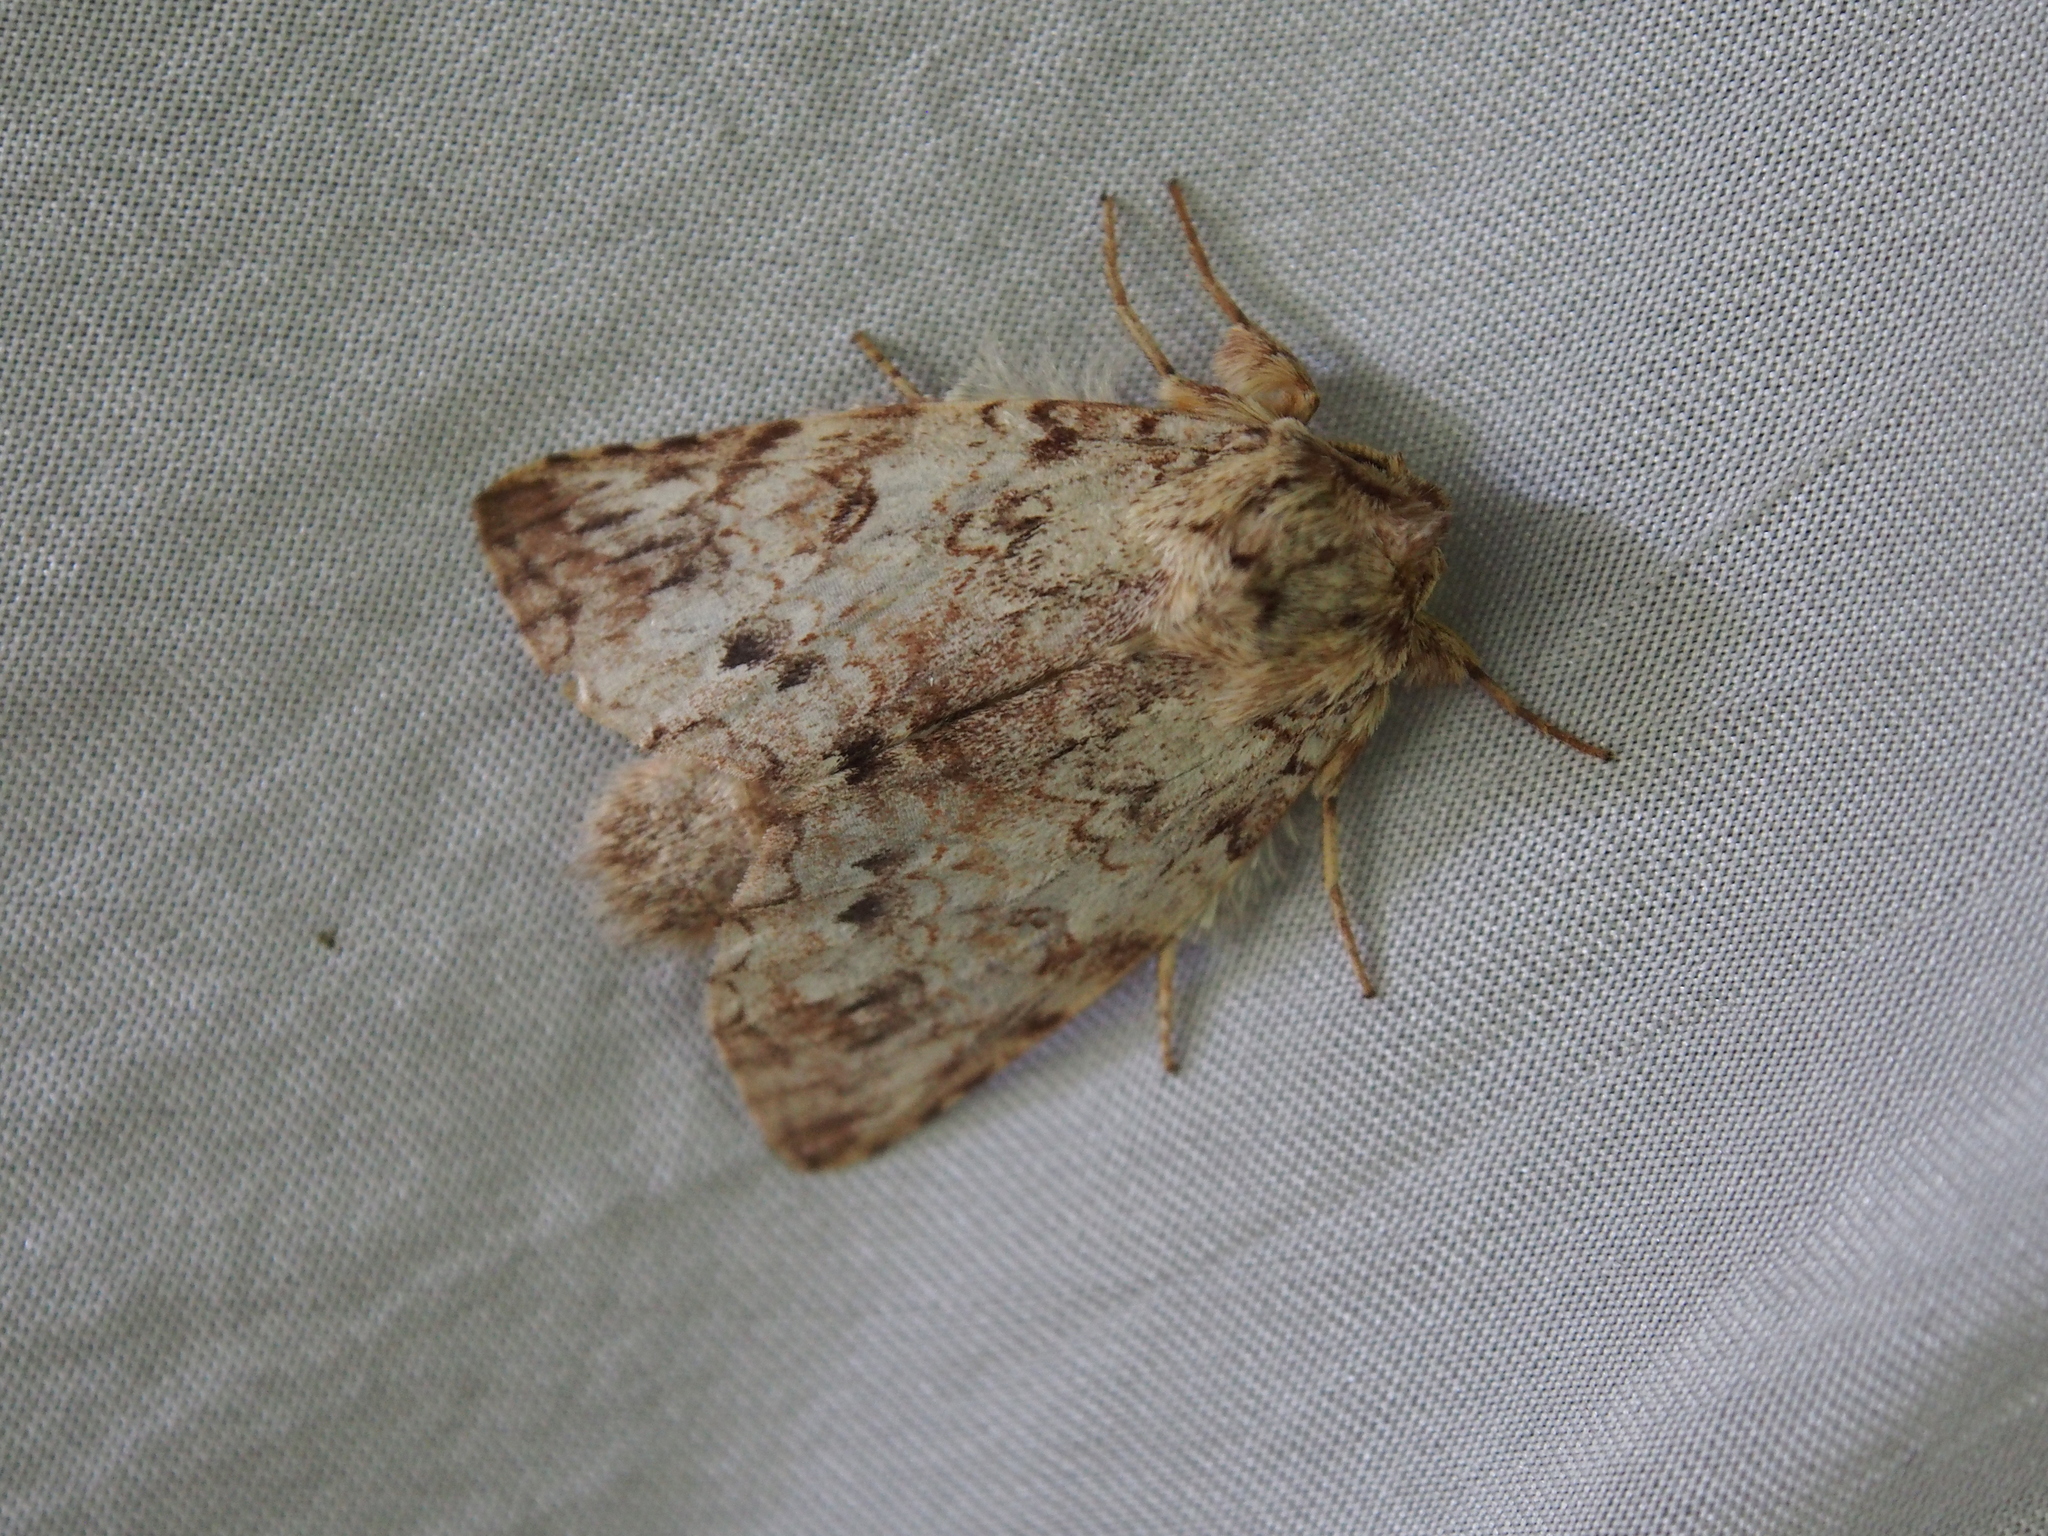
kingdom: Animalia
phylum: Arthropoda
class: Insecta
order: Lepidoptera
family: Notodontidae
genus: Rifargia
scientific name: Rifargia demissa
